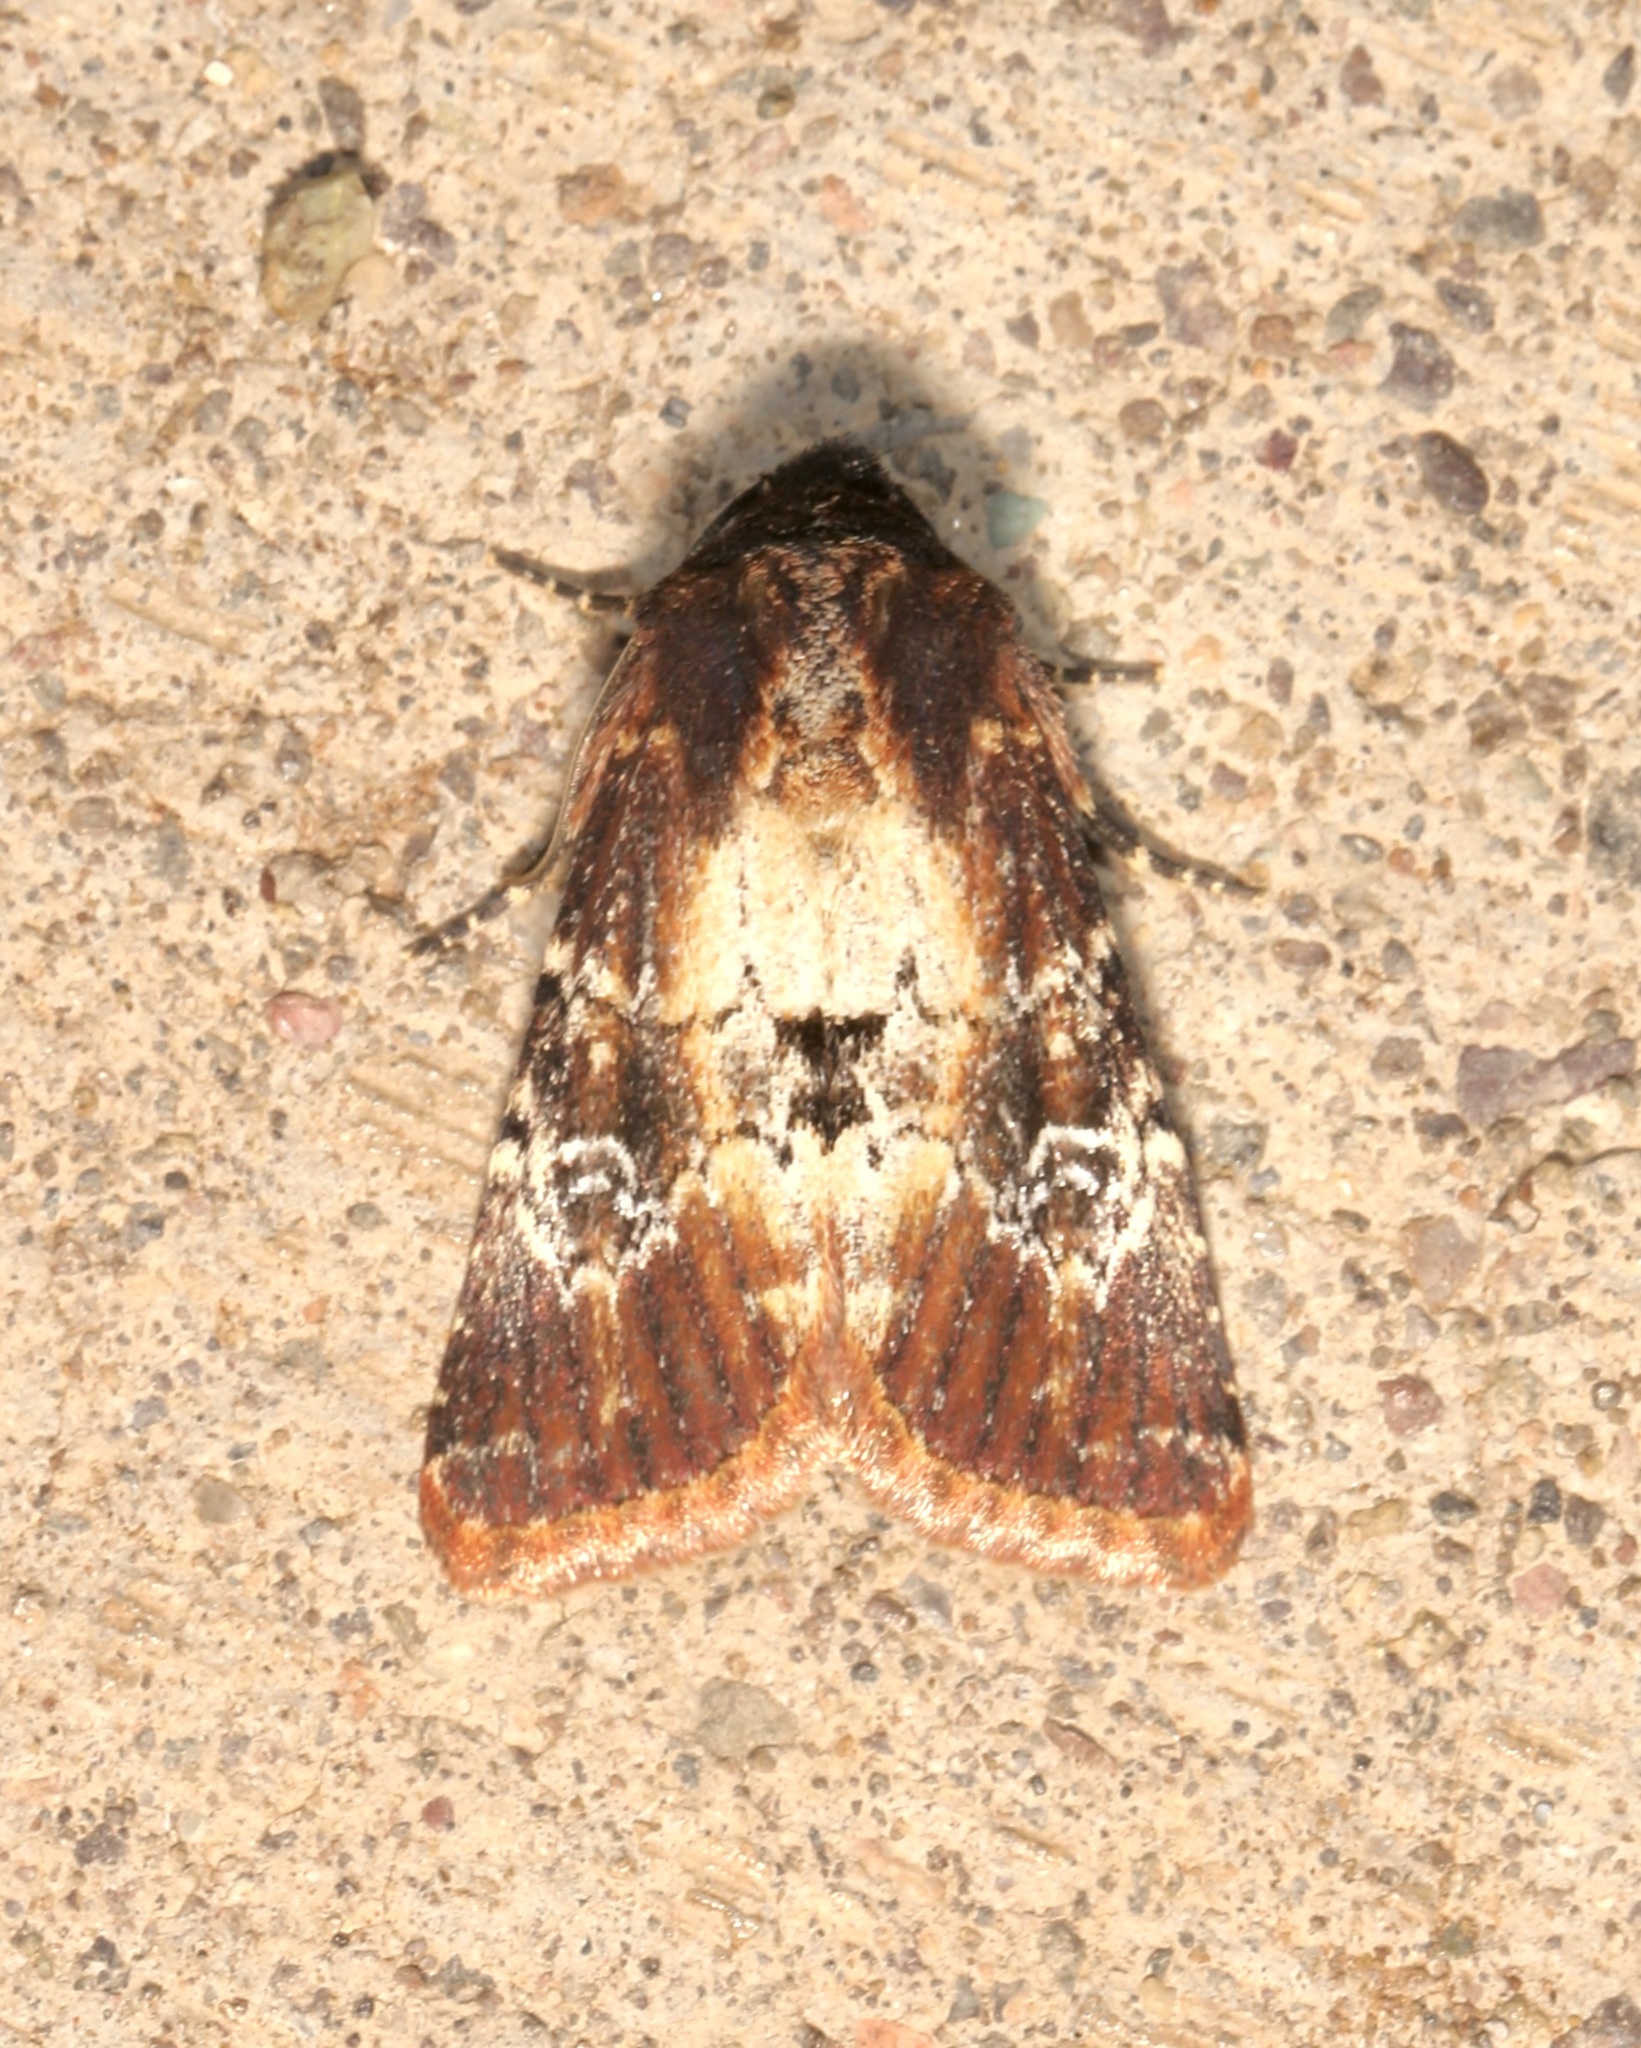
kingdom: Animalia
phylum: Arthropoda
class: Insecta
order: Lepidoptera
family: Noctuidae
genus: Properigea
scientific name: Properigea costa
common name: Barrens moth
